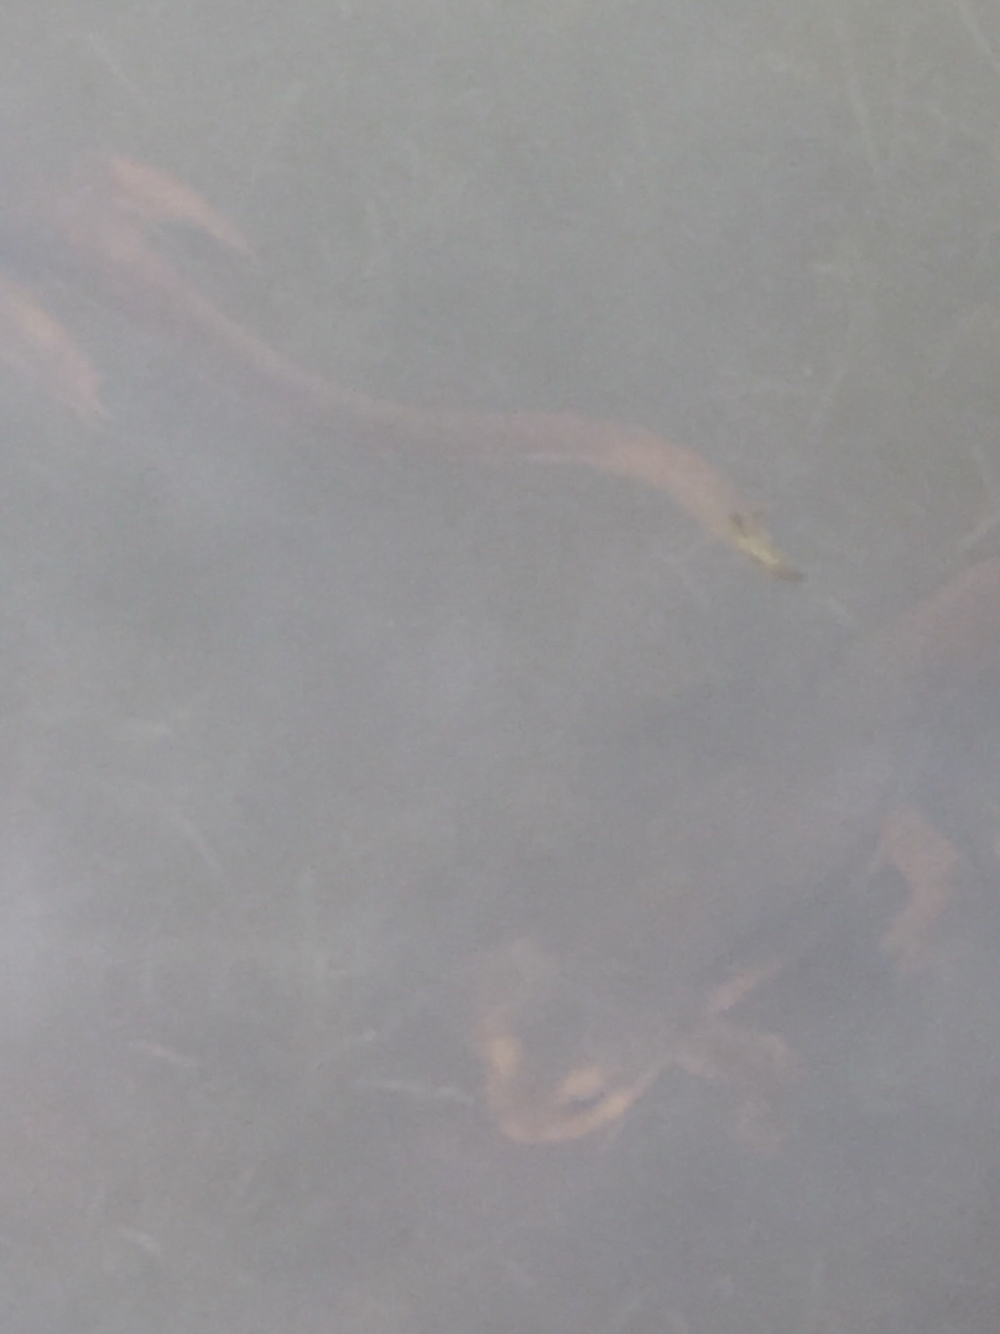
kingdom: Animalia
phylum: Chordata
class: Amphibia
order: Caudata
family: Salamandridae
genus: Taricha
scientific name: Taricha torosa
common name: California newt
